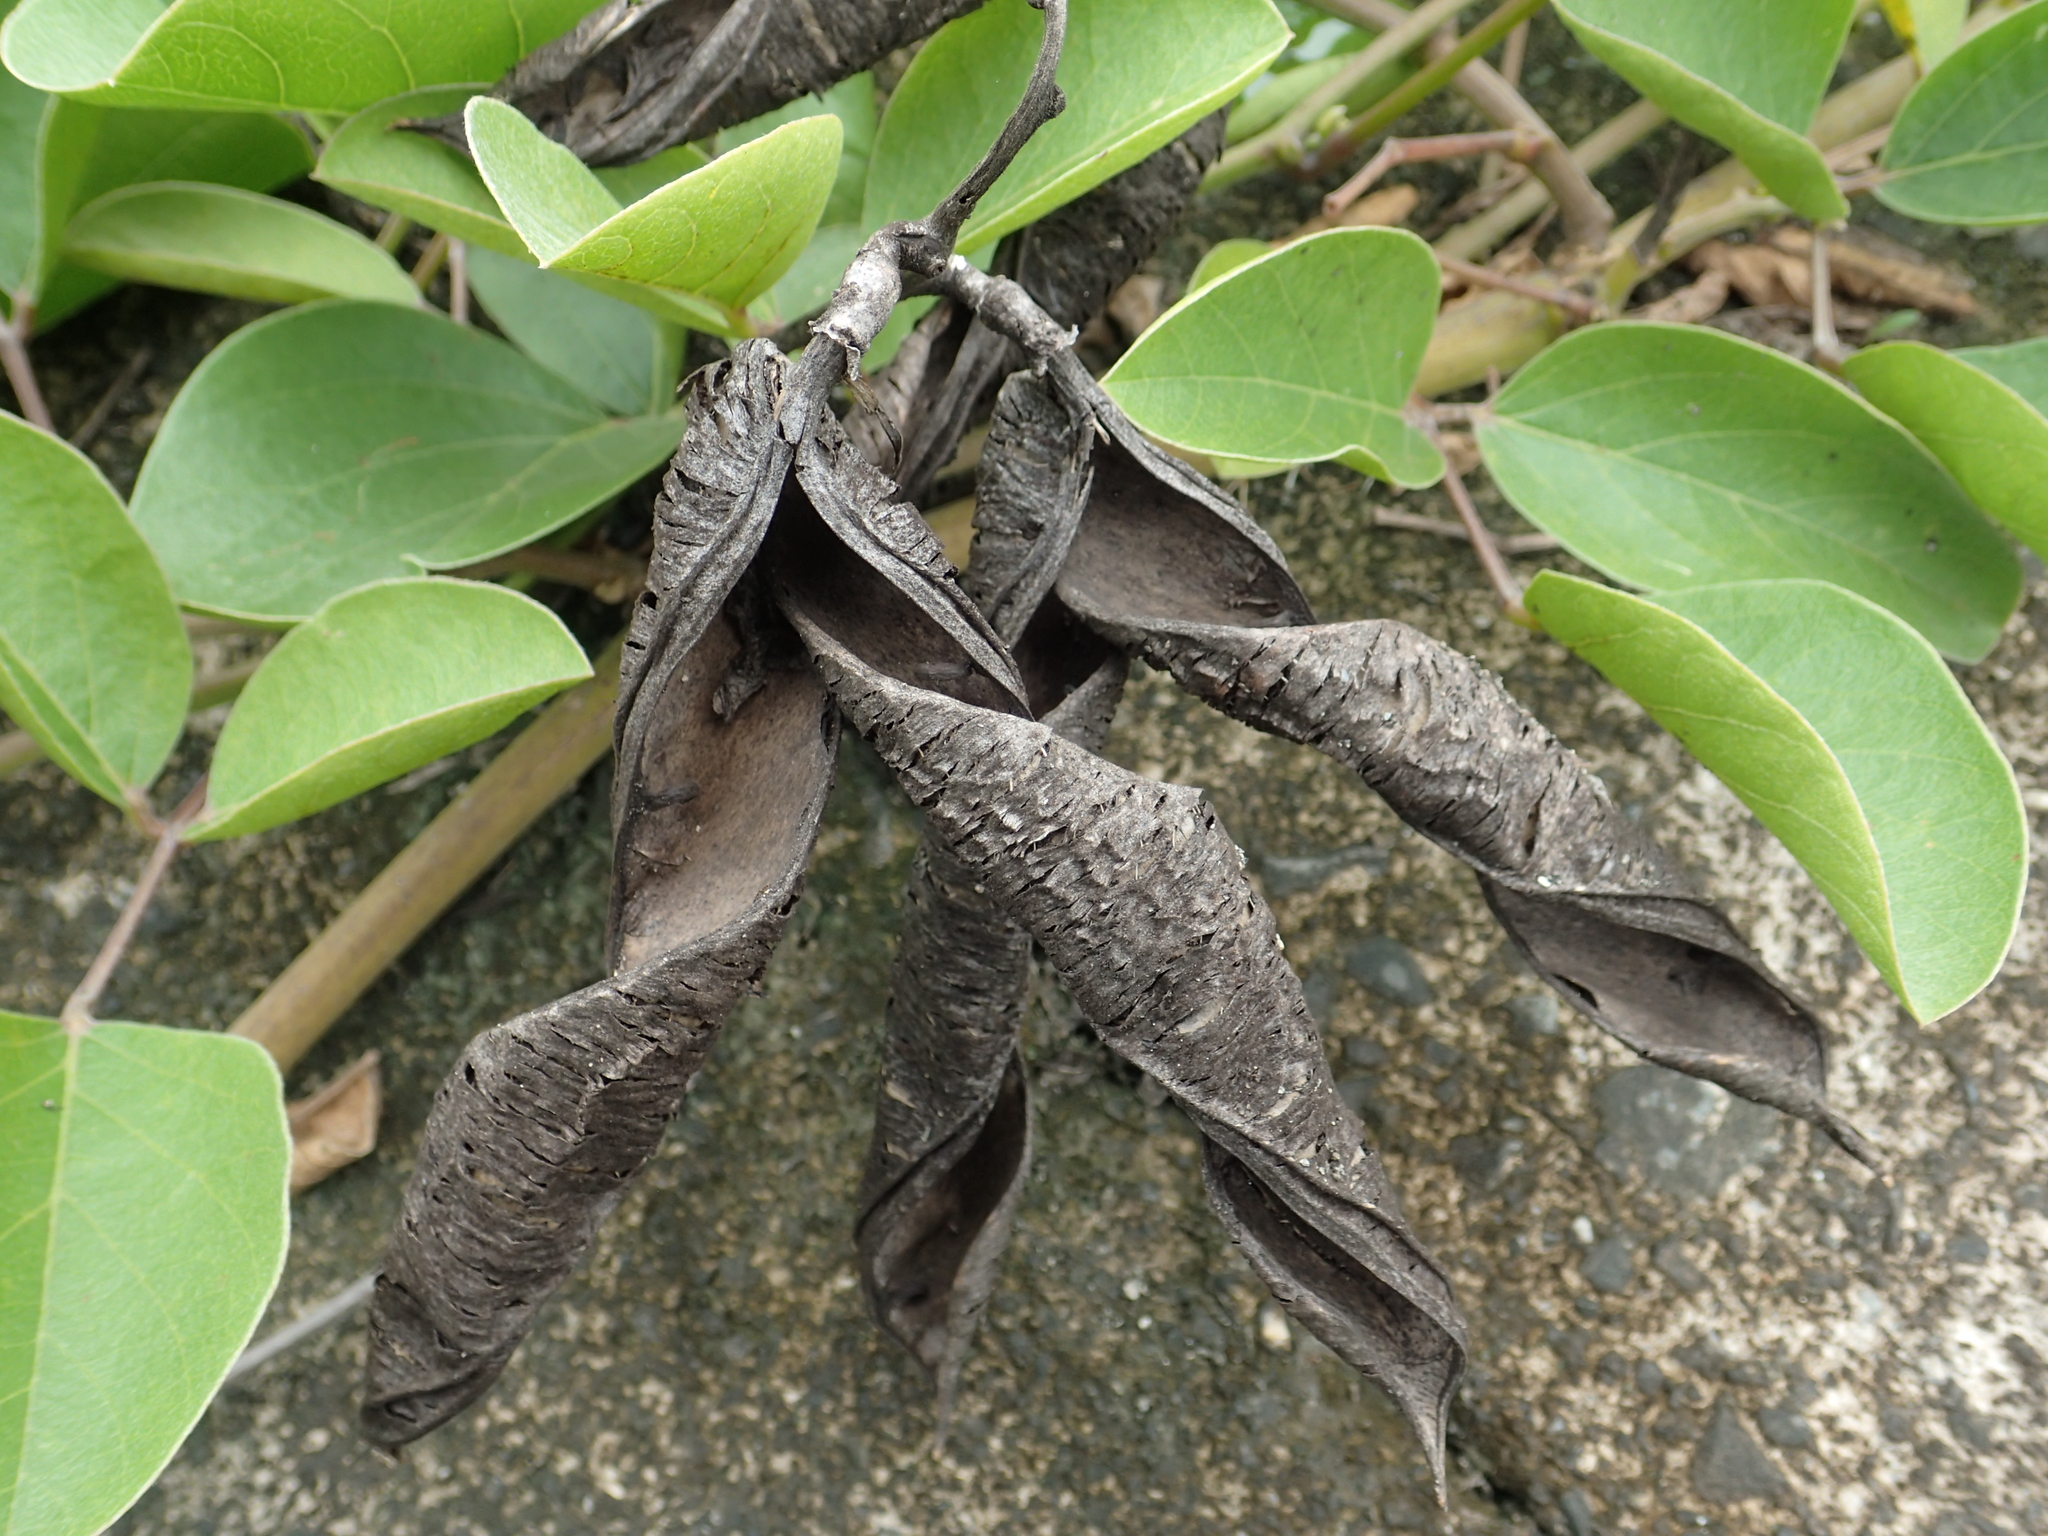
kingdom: Plantae
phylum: Tracheophyta
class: Magnoliopsida
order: Fabales
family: Fabaceae
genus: Canavalia
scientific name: Canavalia lineata
